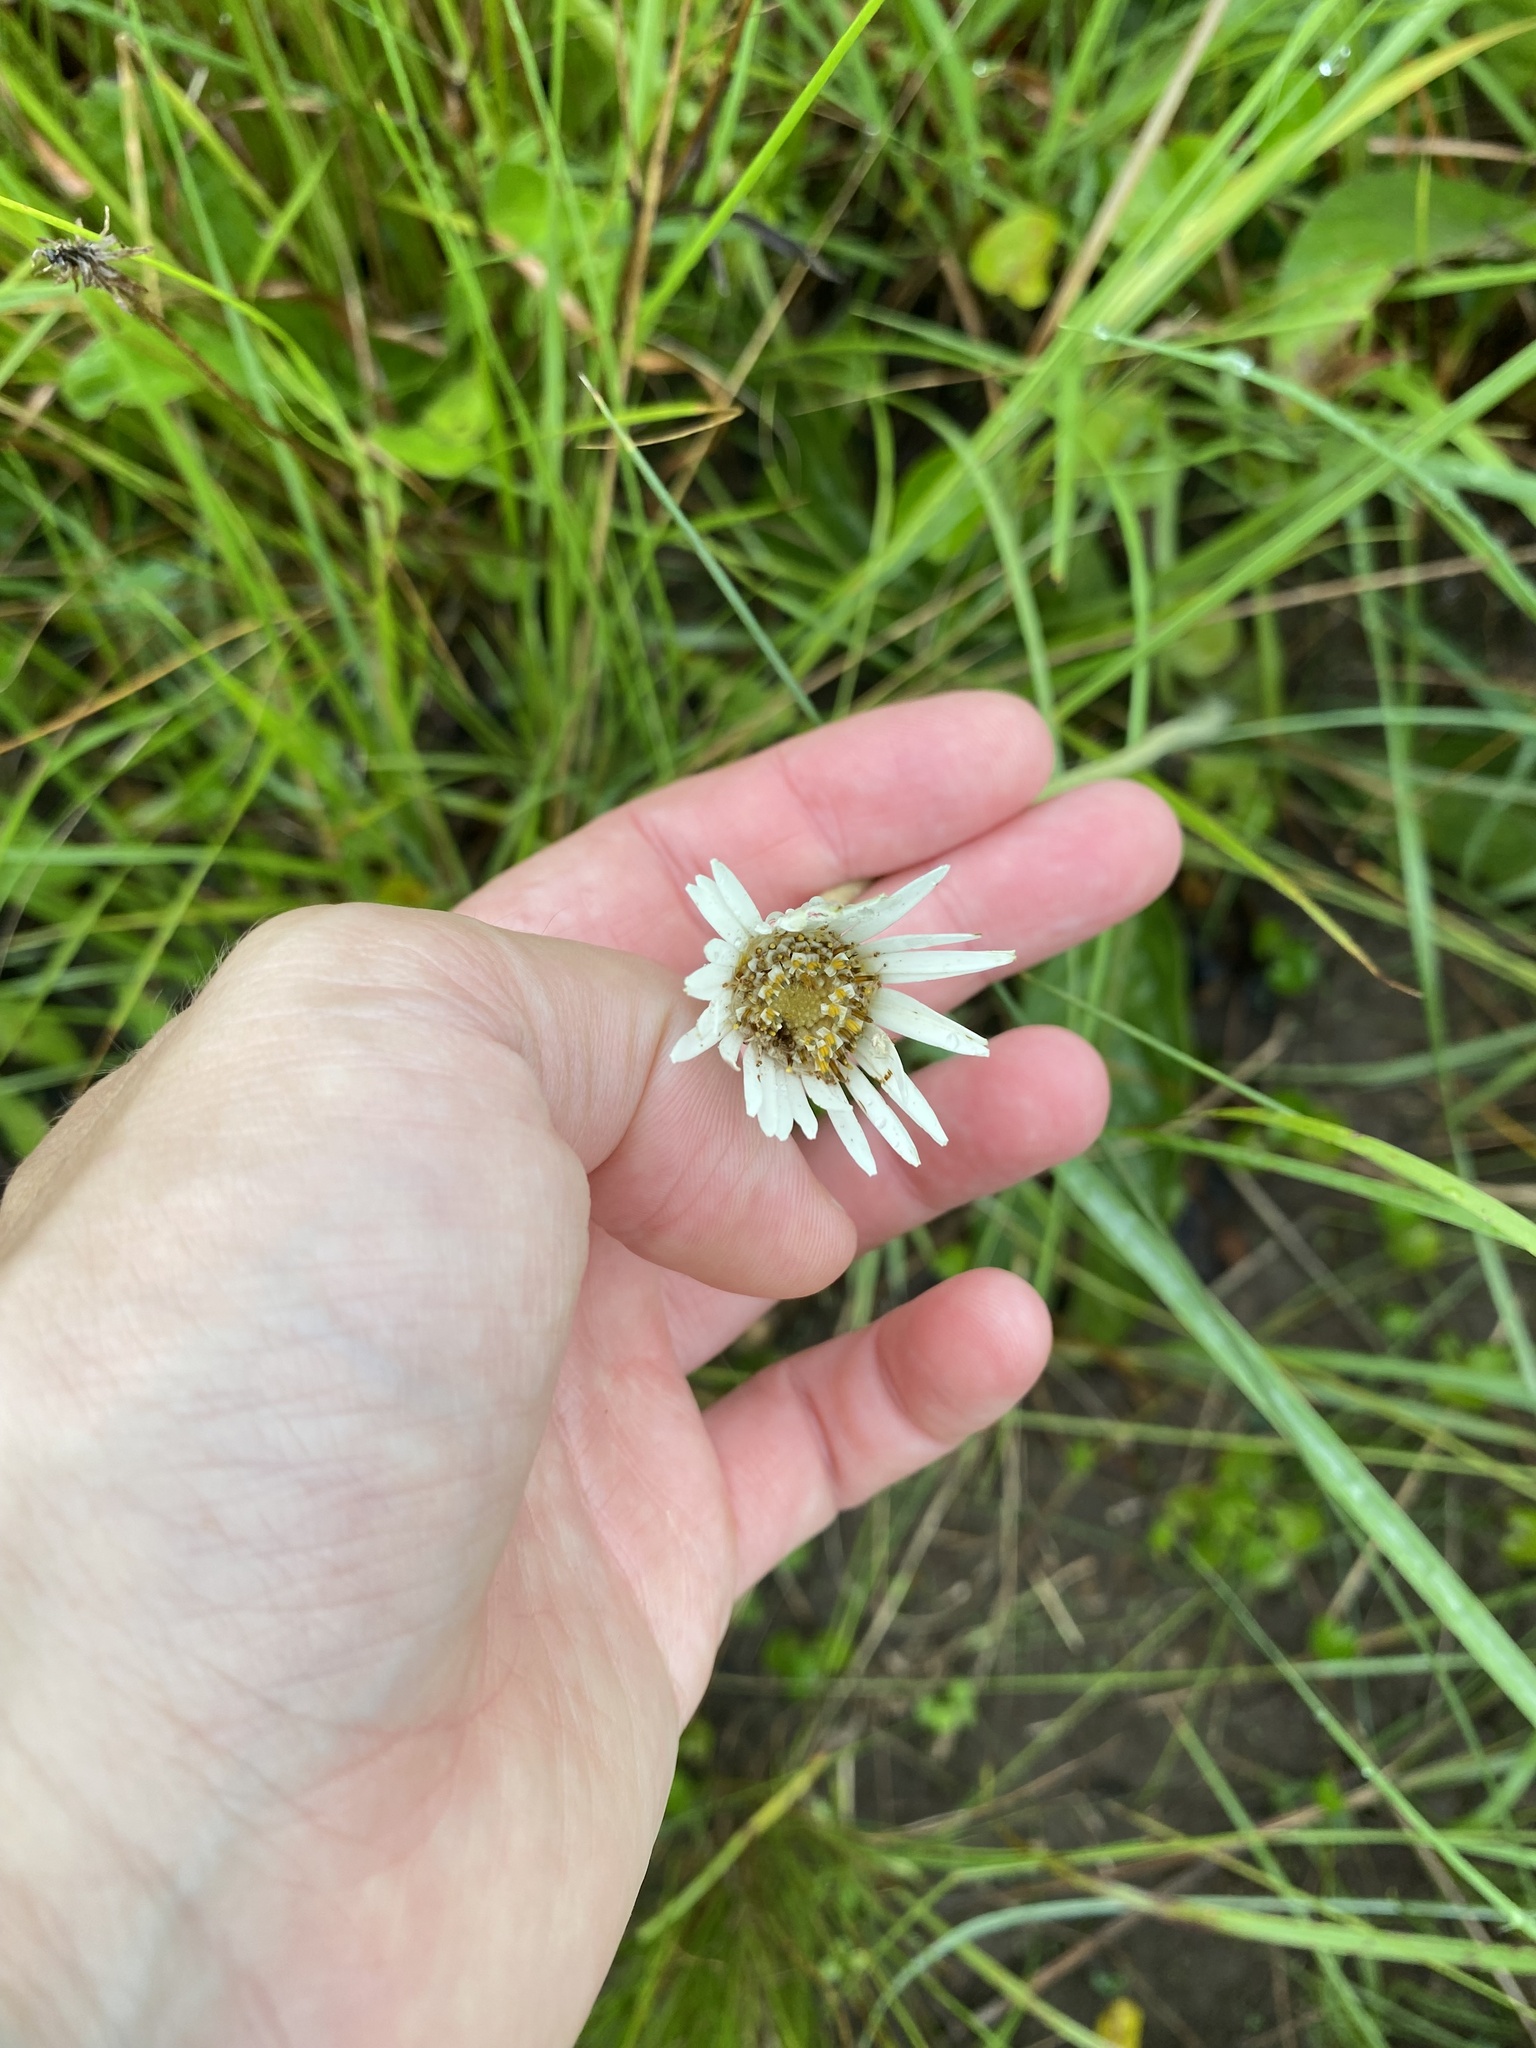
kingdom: Plantae
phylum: Tracheophyta
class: Magnoliopsida
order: Asterales
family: Asteraceae
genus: Gerbera
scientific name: Gerbera
